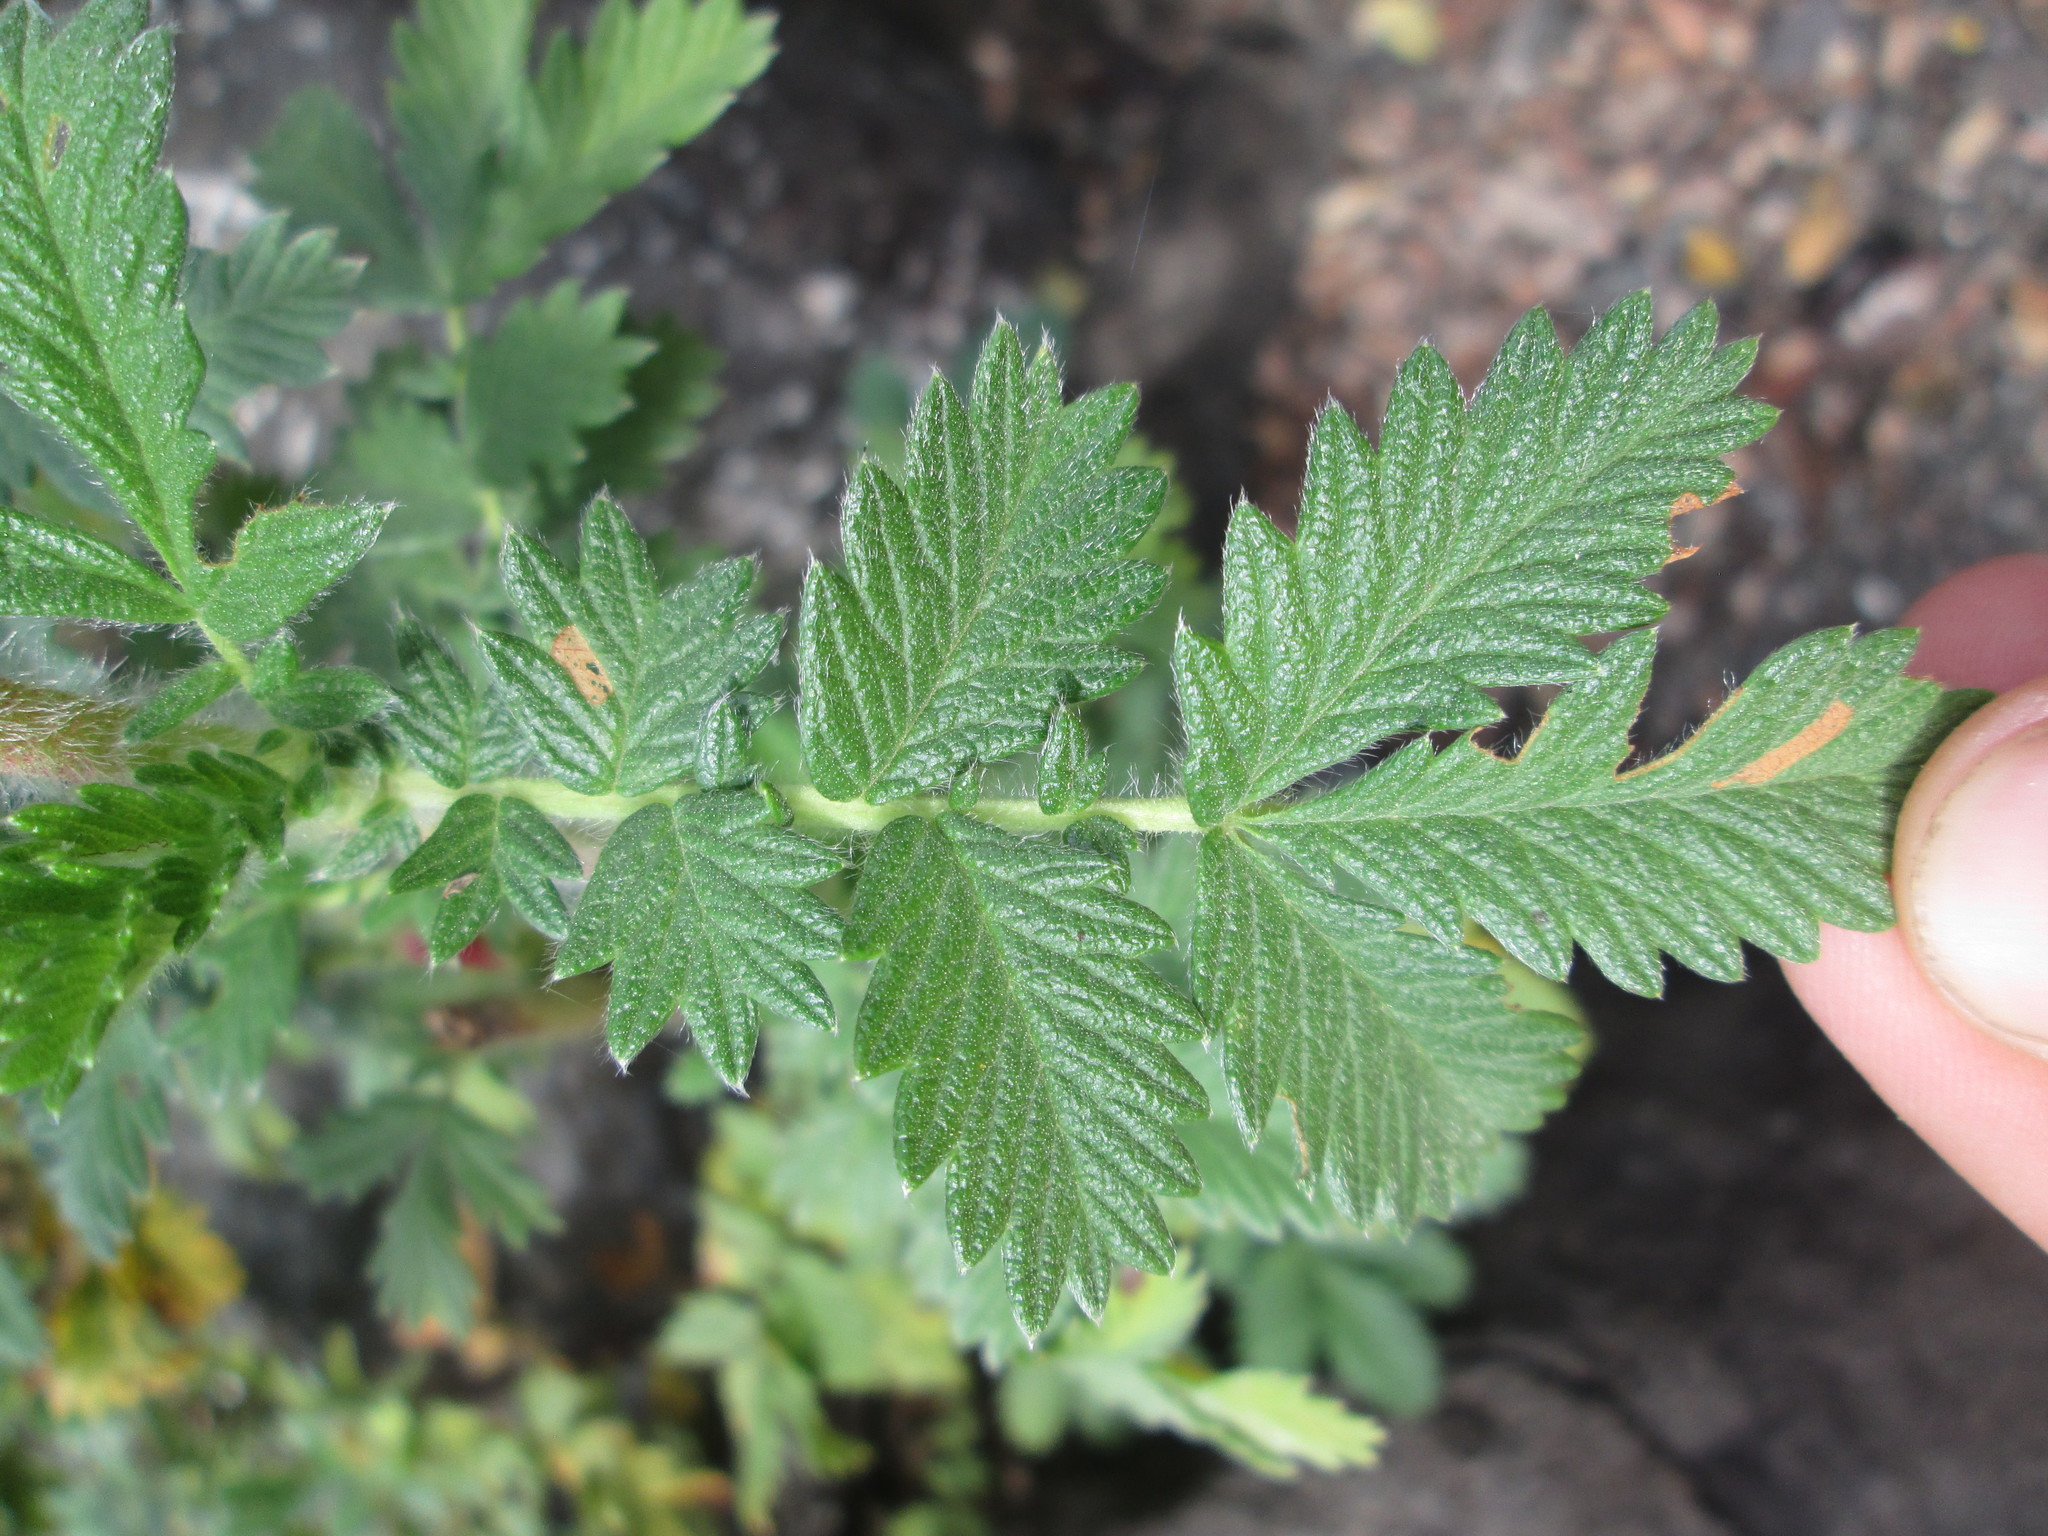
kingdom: Plantae
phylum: Tracheophyta
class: Magnoliopsida
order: Rosales
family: Rosaceae
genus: Leucosidea
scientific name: Leucosidea sericea
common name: Oldwood
